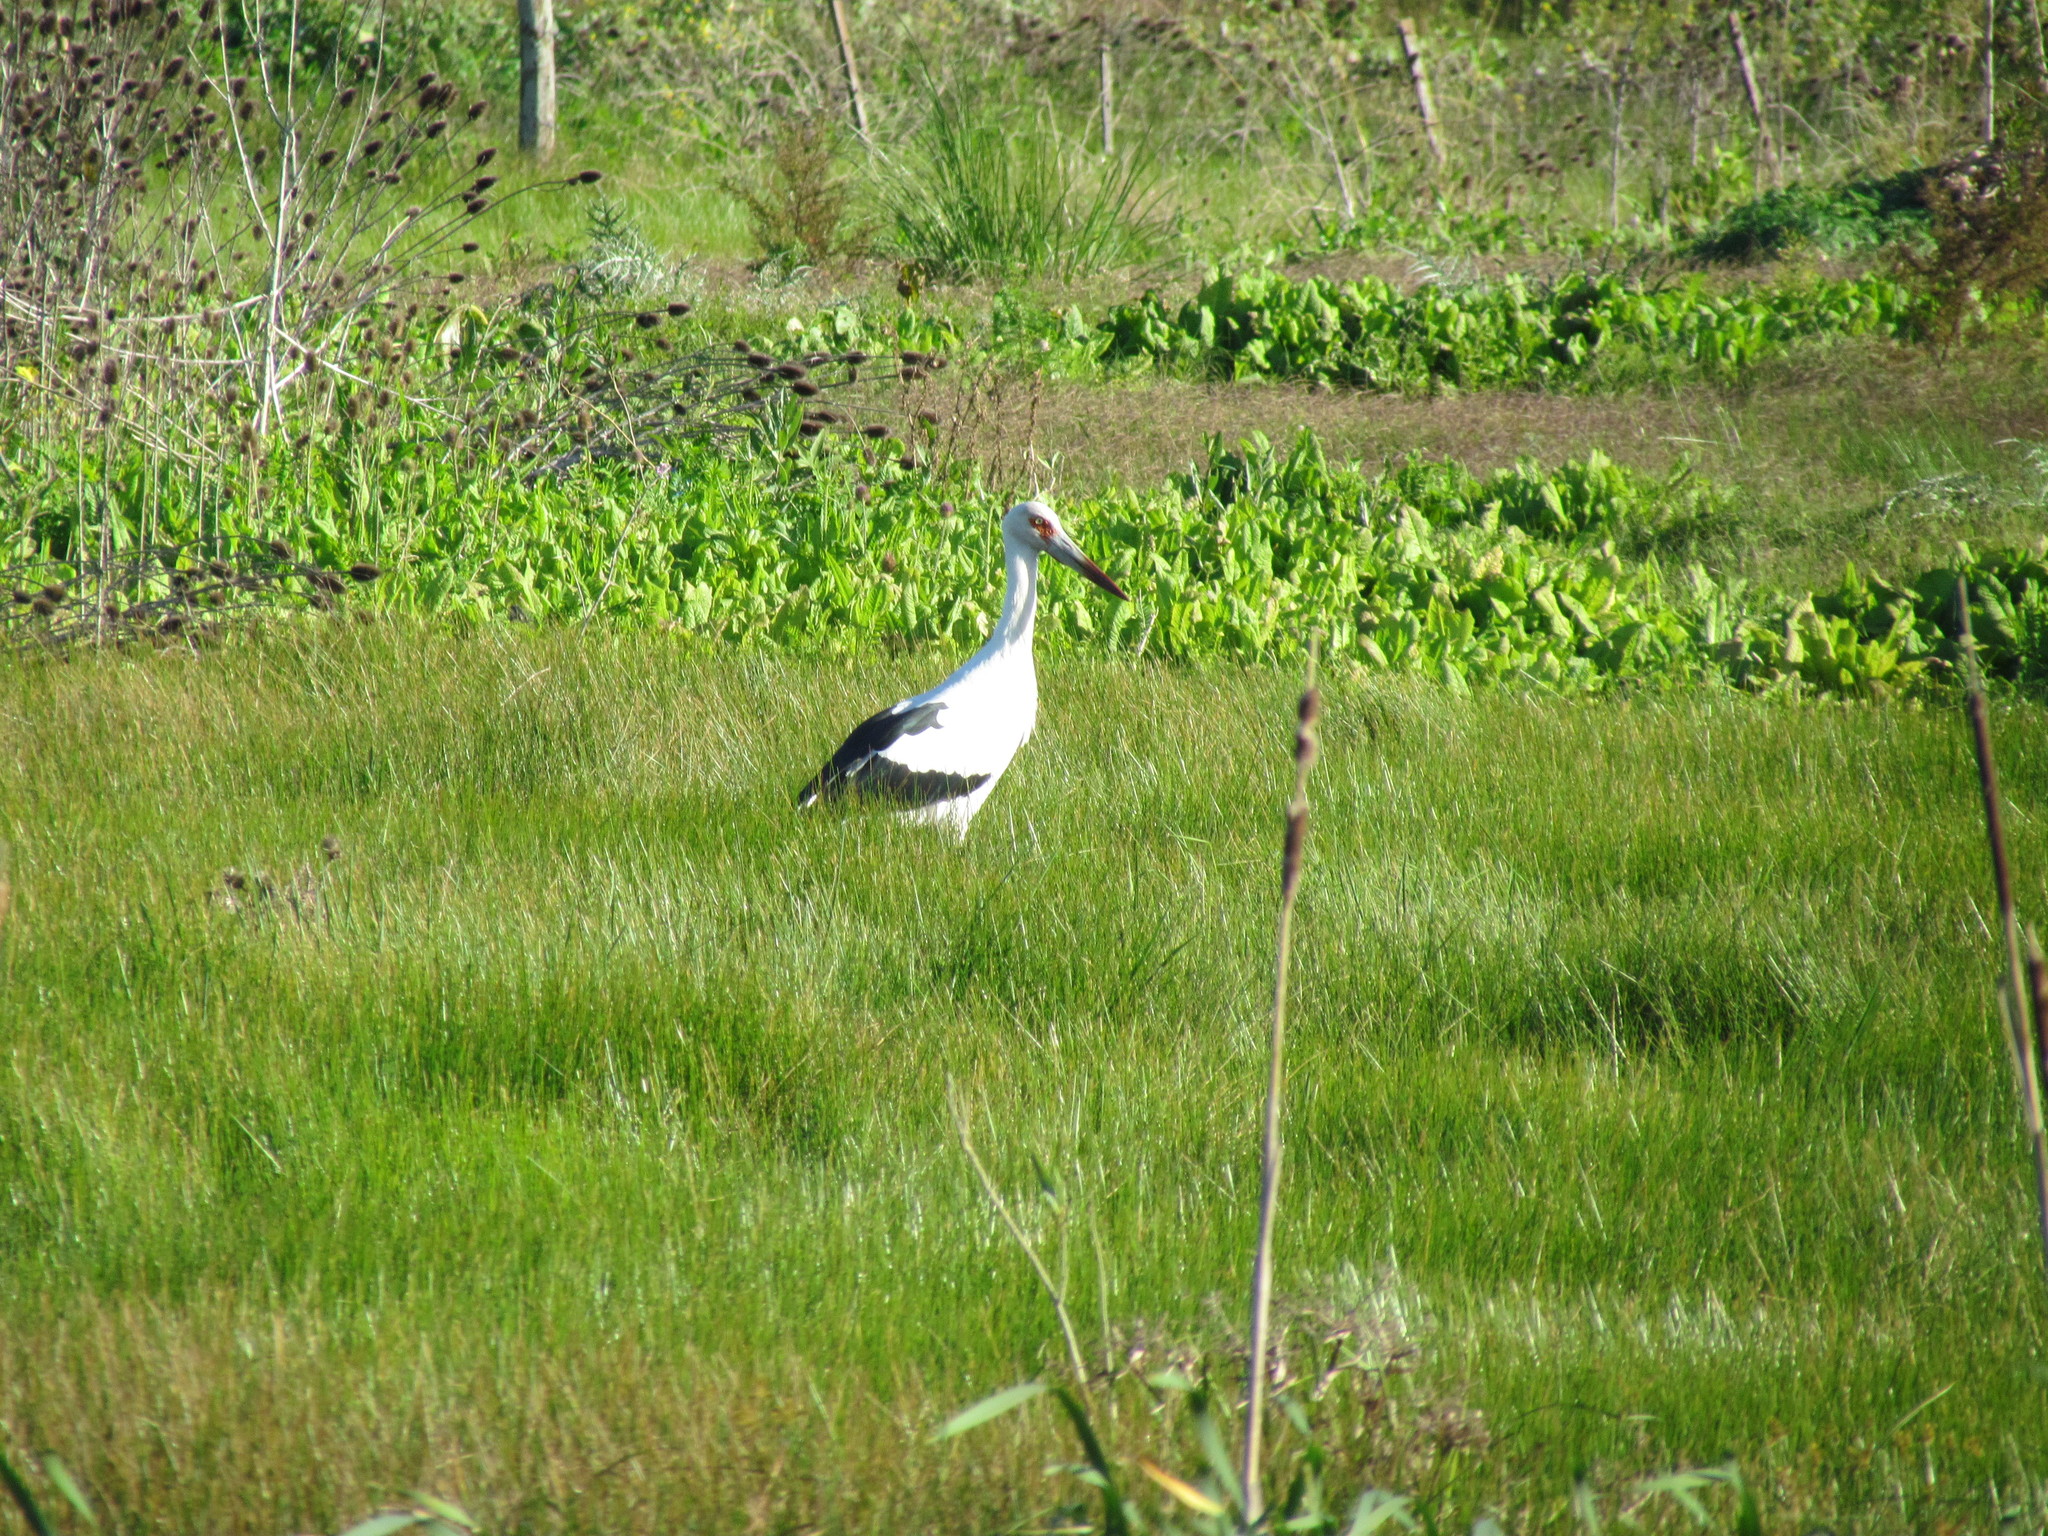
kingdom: Animalia
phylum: Chordata
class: Aves
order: Ciconiiformes
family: Ciconiidae
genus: Ciconia
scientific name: Ciconia maguari
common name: Maguari stork
